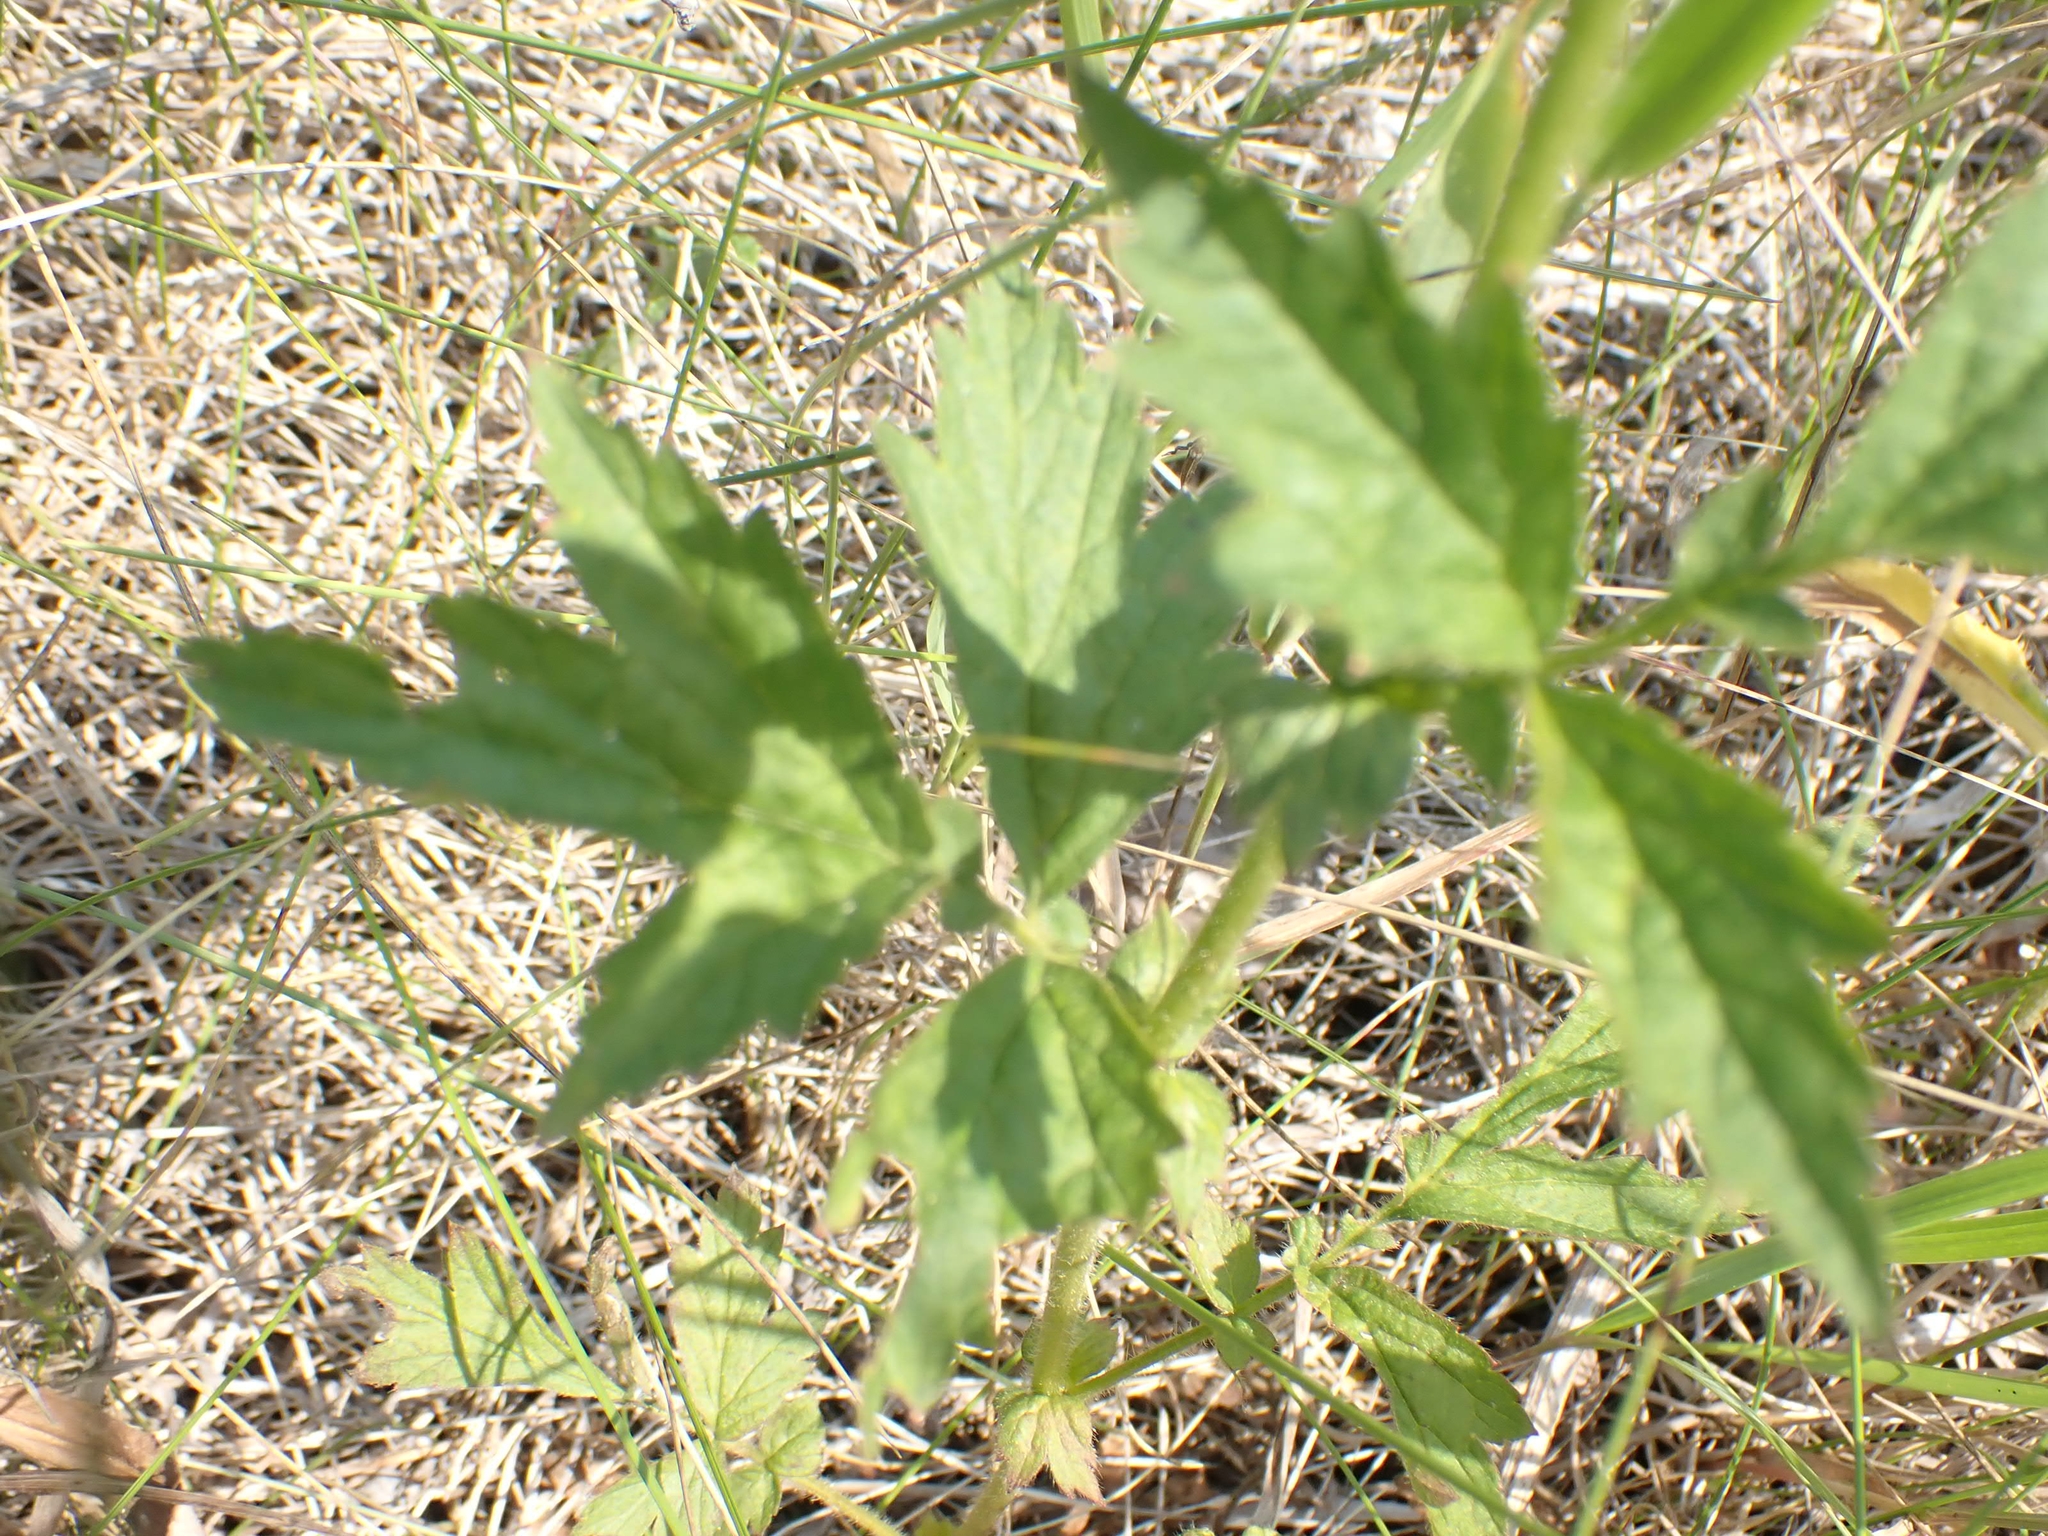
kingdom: Plantae
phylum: Tracheophyta
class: Magnoliopsida
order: Rosales
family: Rosaceae
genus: Geum
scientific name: Geum aleppicum
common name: Yellow avens
